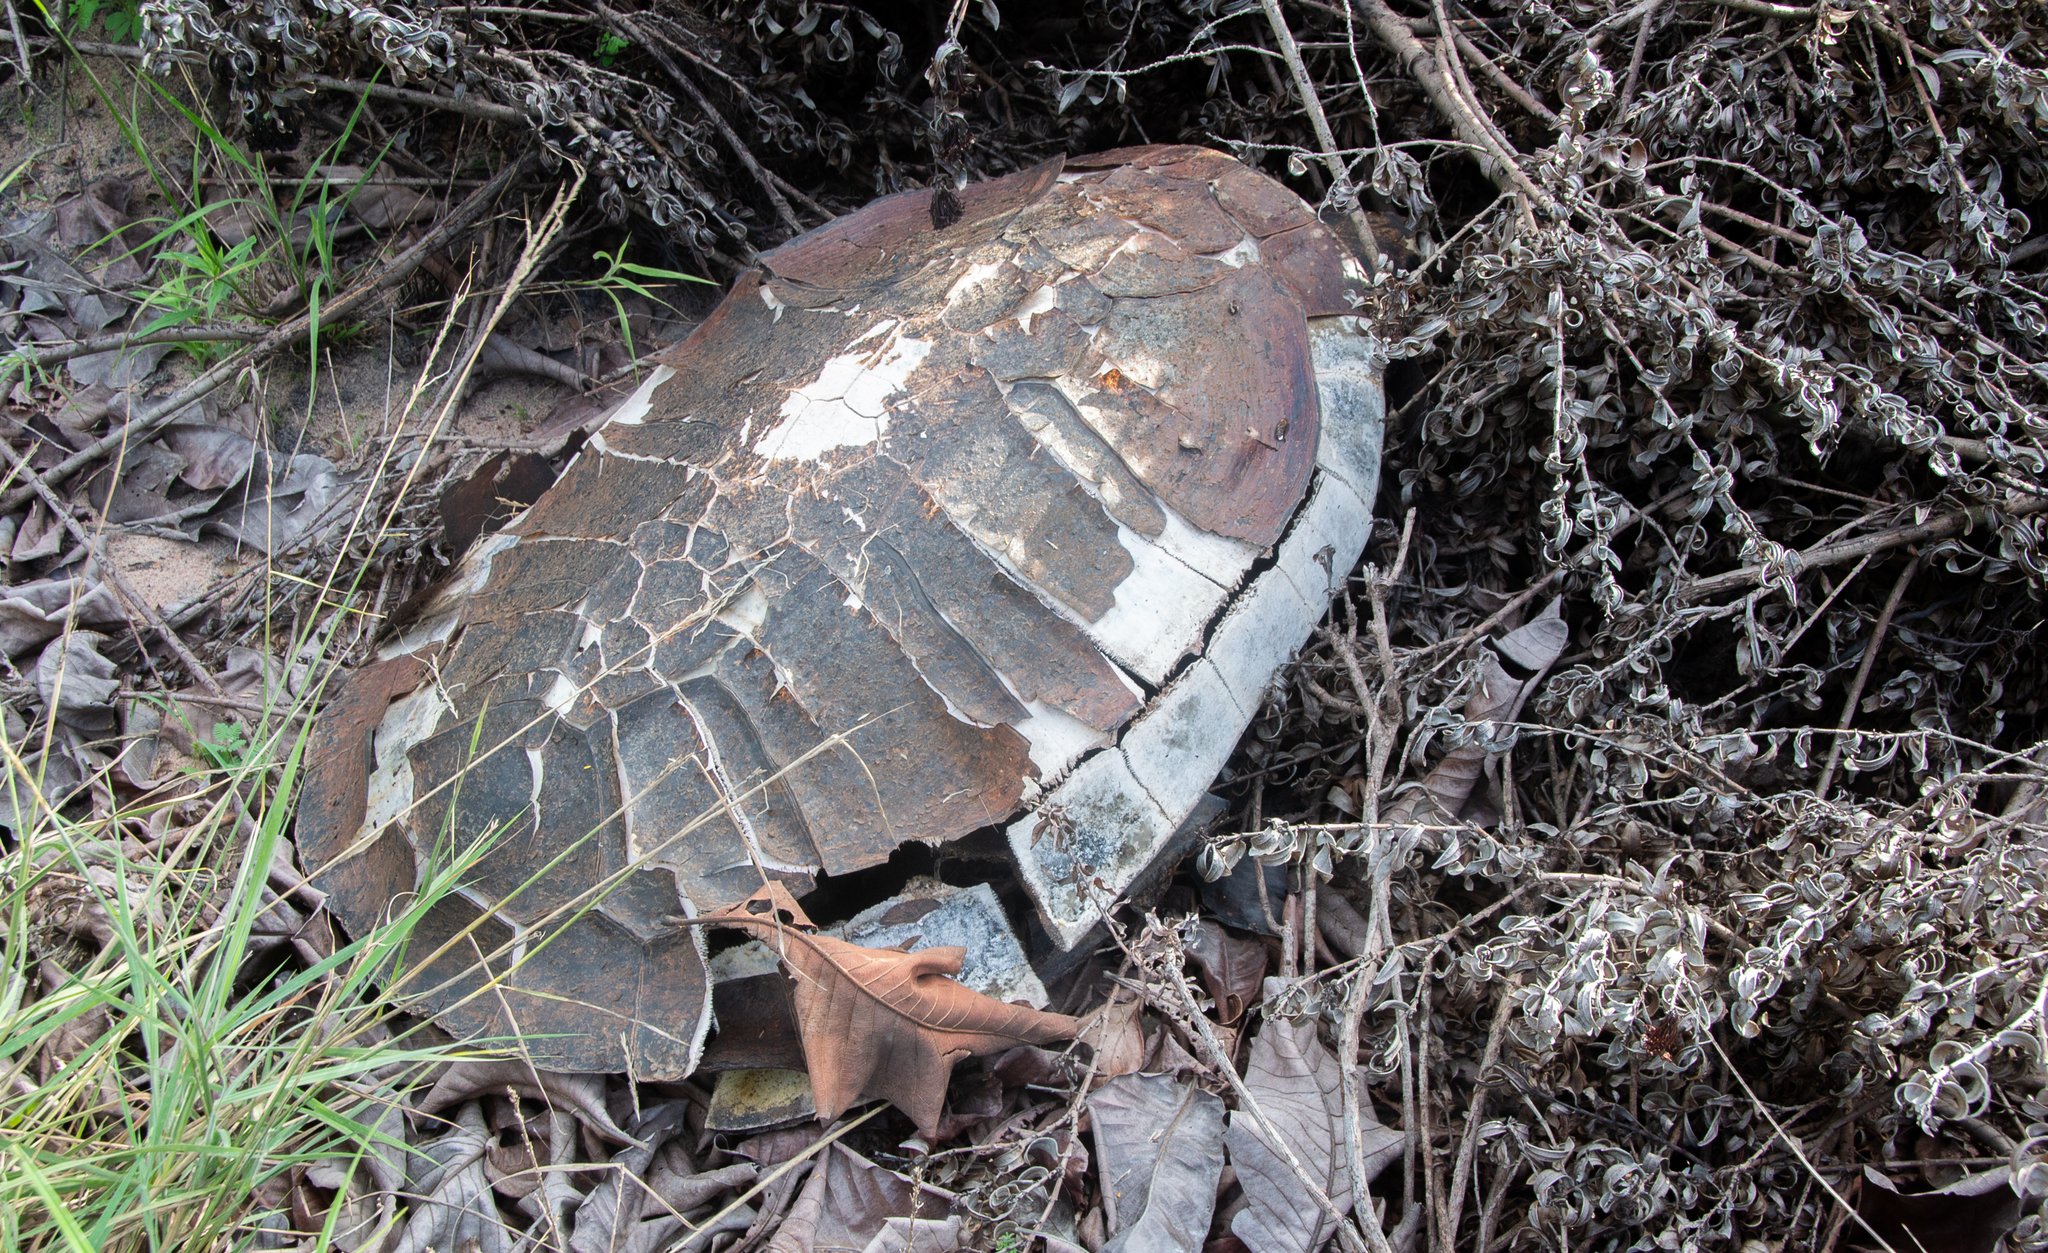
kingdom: Animalia
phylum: Chordata
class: Testudines
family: Podocnemididae
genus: Podocnemis
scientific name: Podocnemis expansa
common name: South american river turtle
